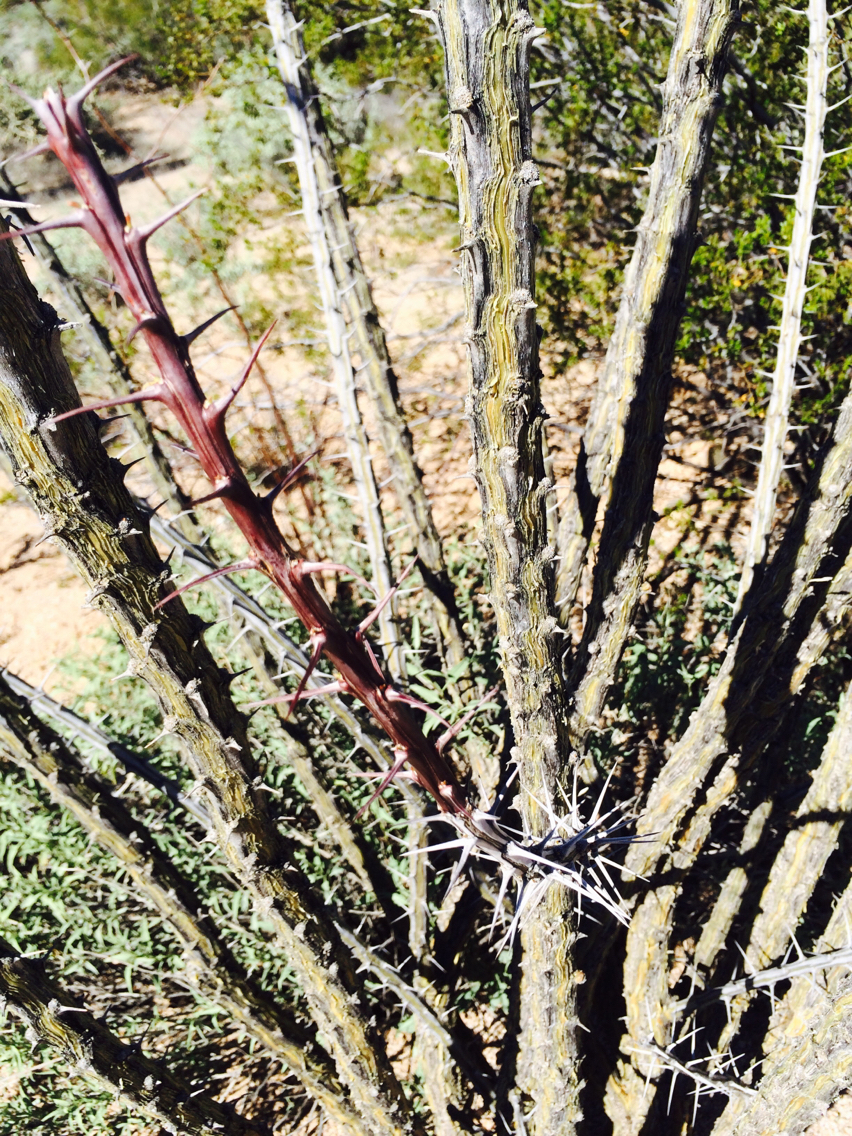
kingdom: Plantae
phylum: Tracheophyta
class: Magnoliopsida
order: Ericales
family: Fouquieriaceae
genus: Fouquieria
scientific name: Fouquieria splendens
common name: Vine-cactus
